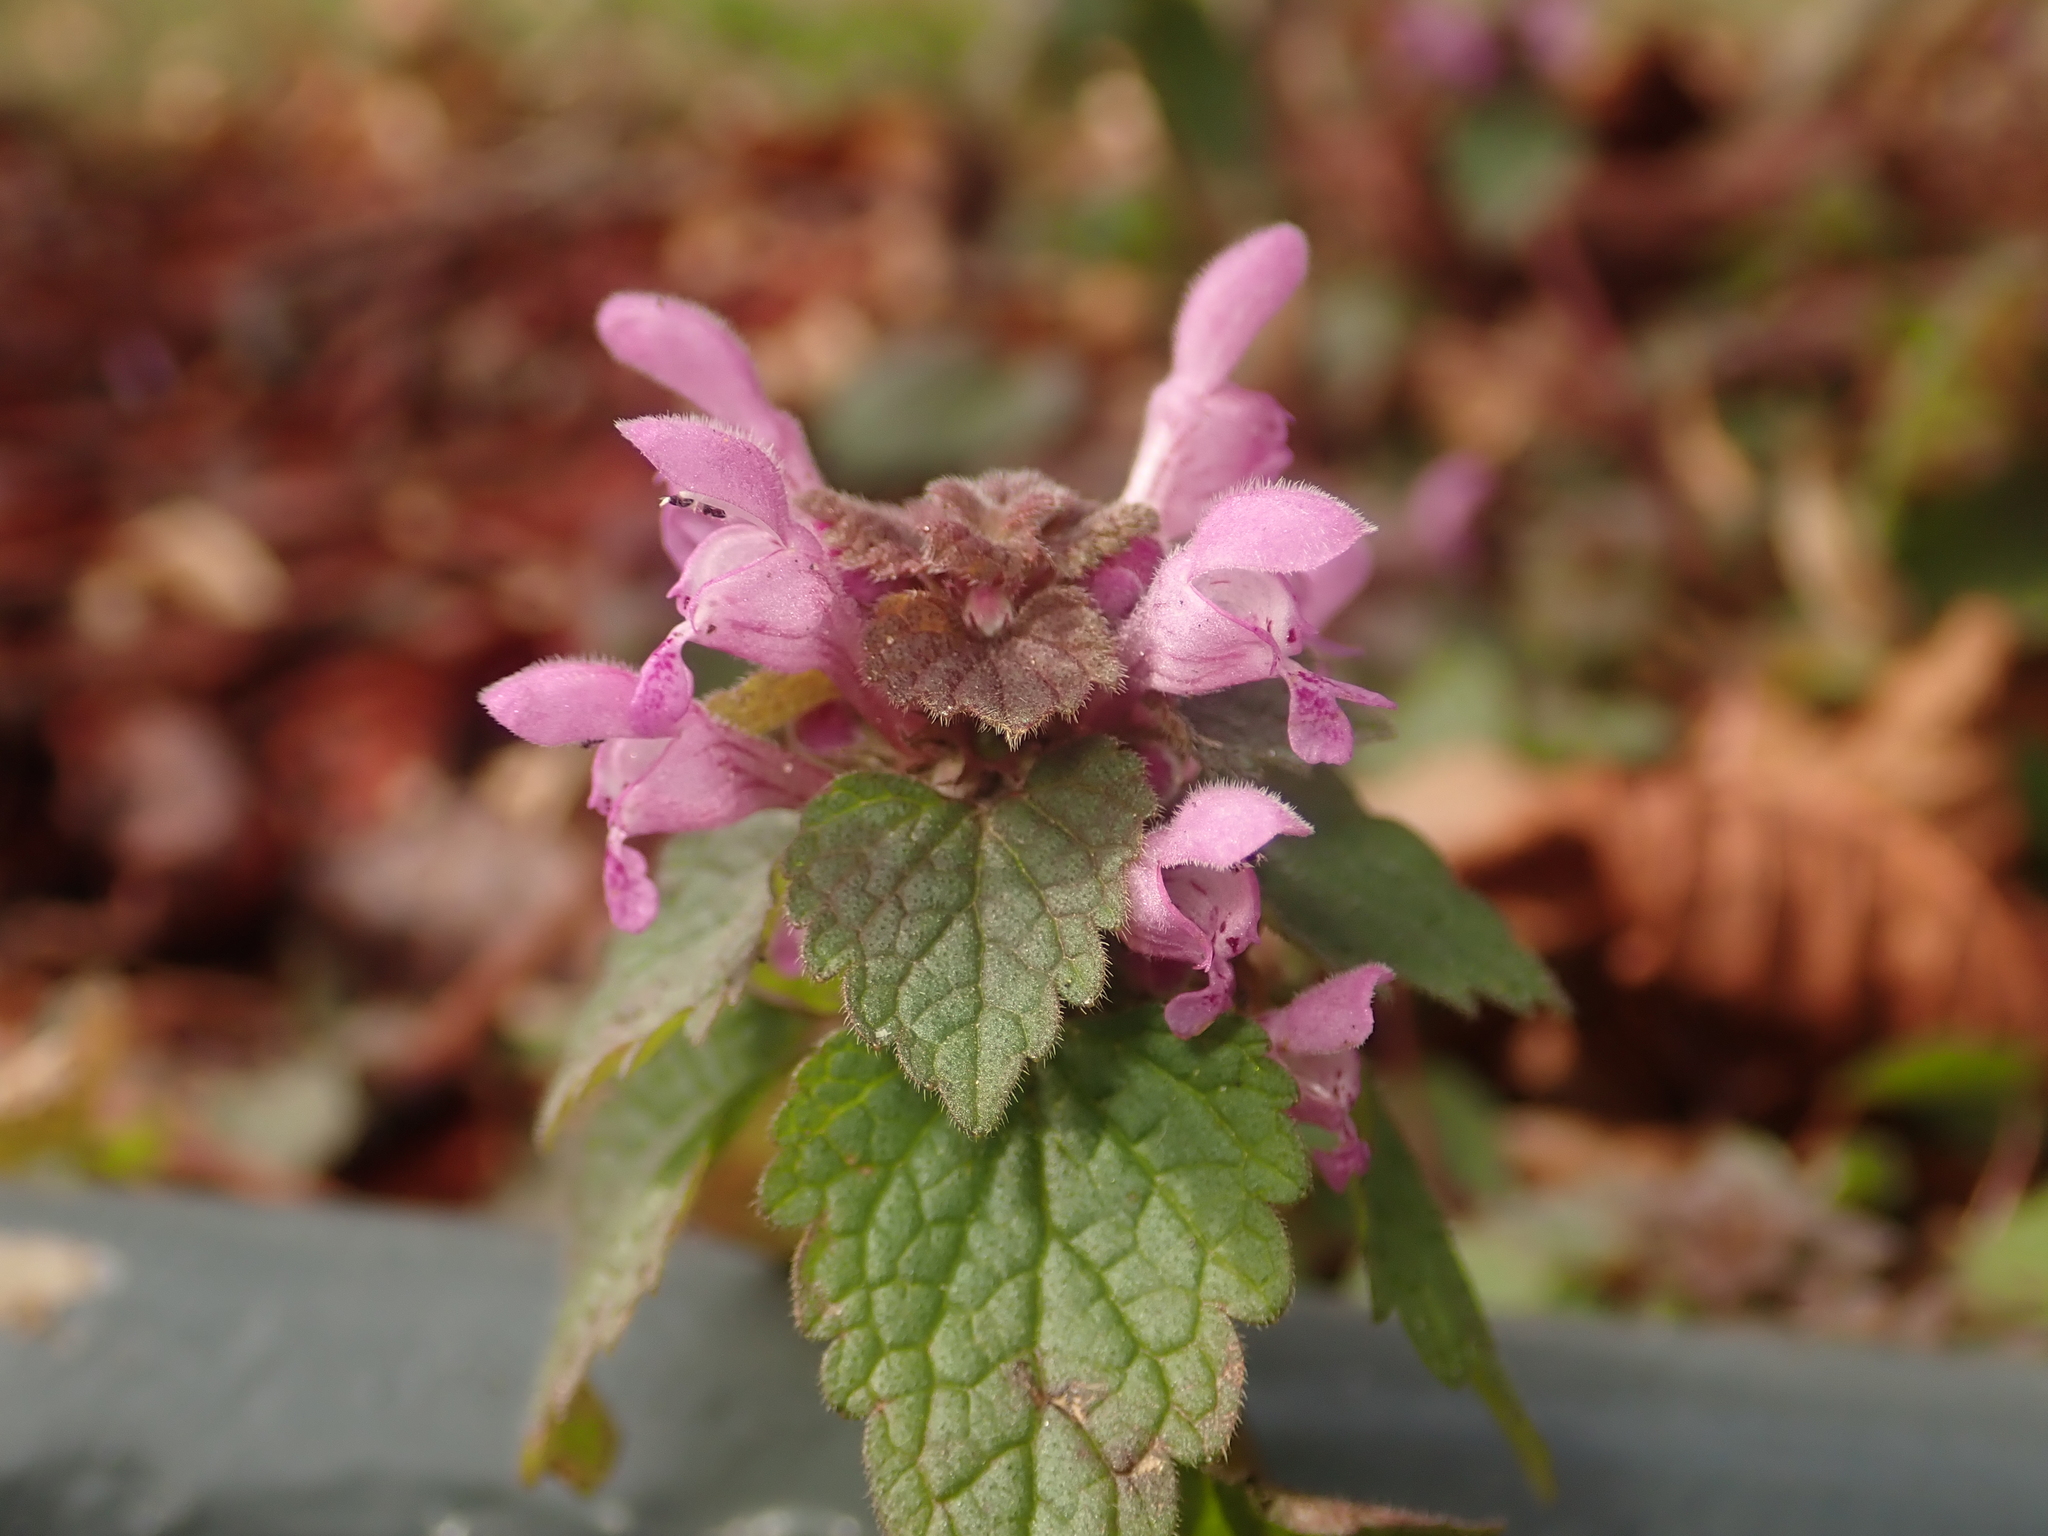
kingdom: Plantae
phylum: Tracheophyta
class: Magnoliopsida
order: Lamiales
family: Lamiaceae
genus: Lamium
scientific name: Lamium purpureum
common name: Red dead-nettle
